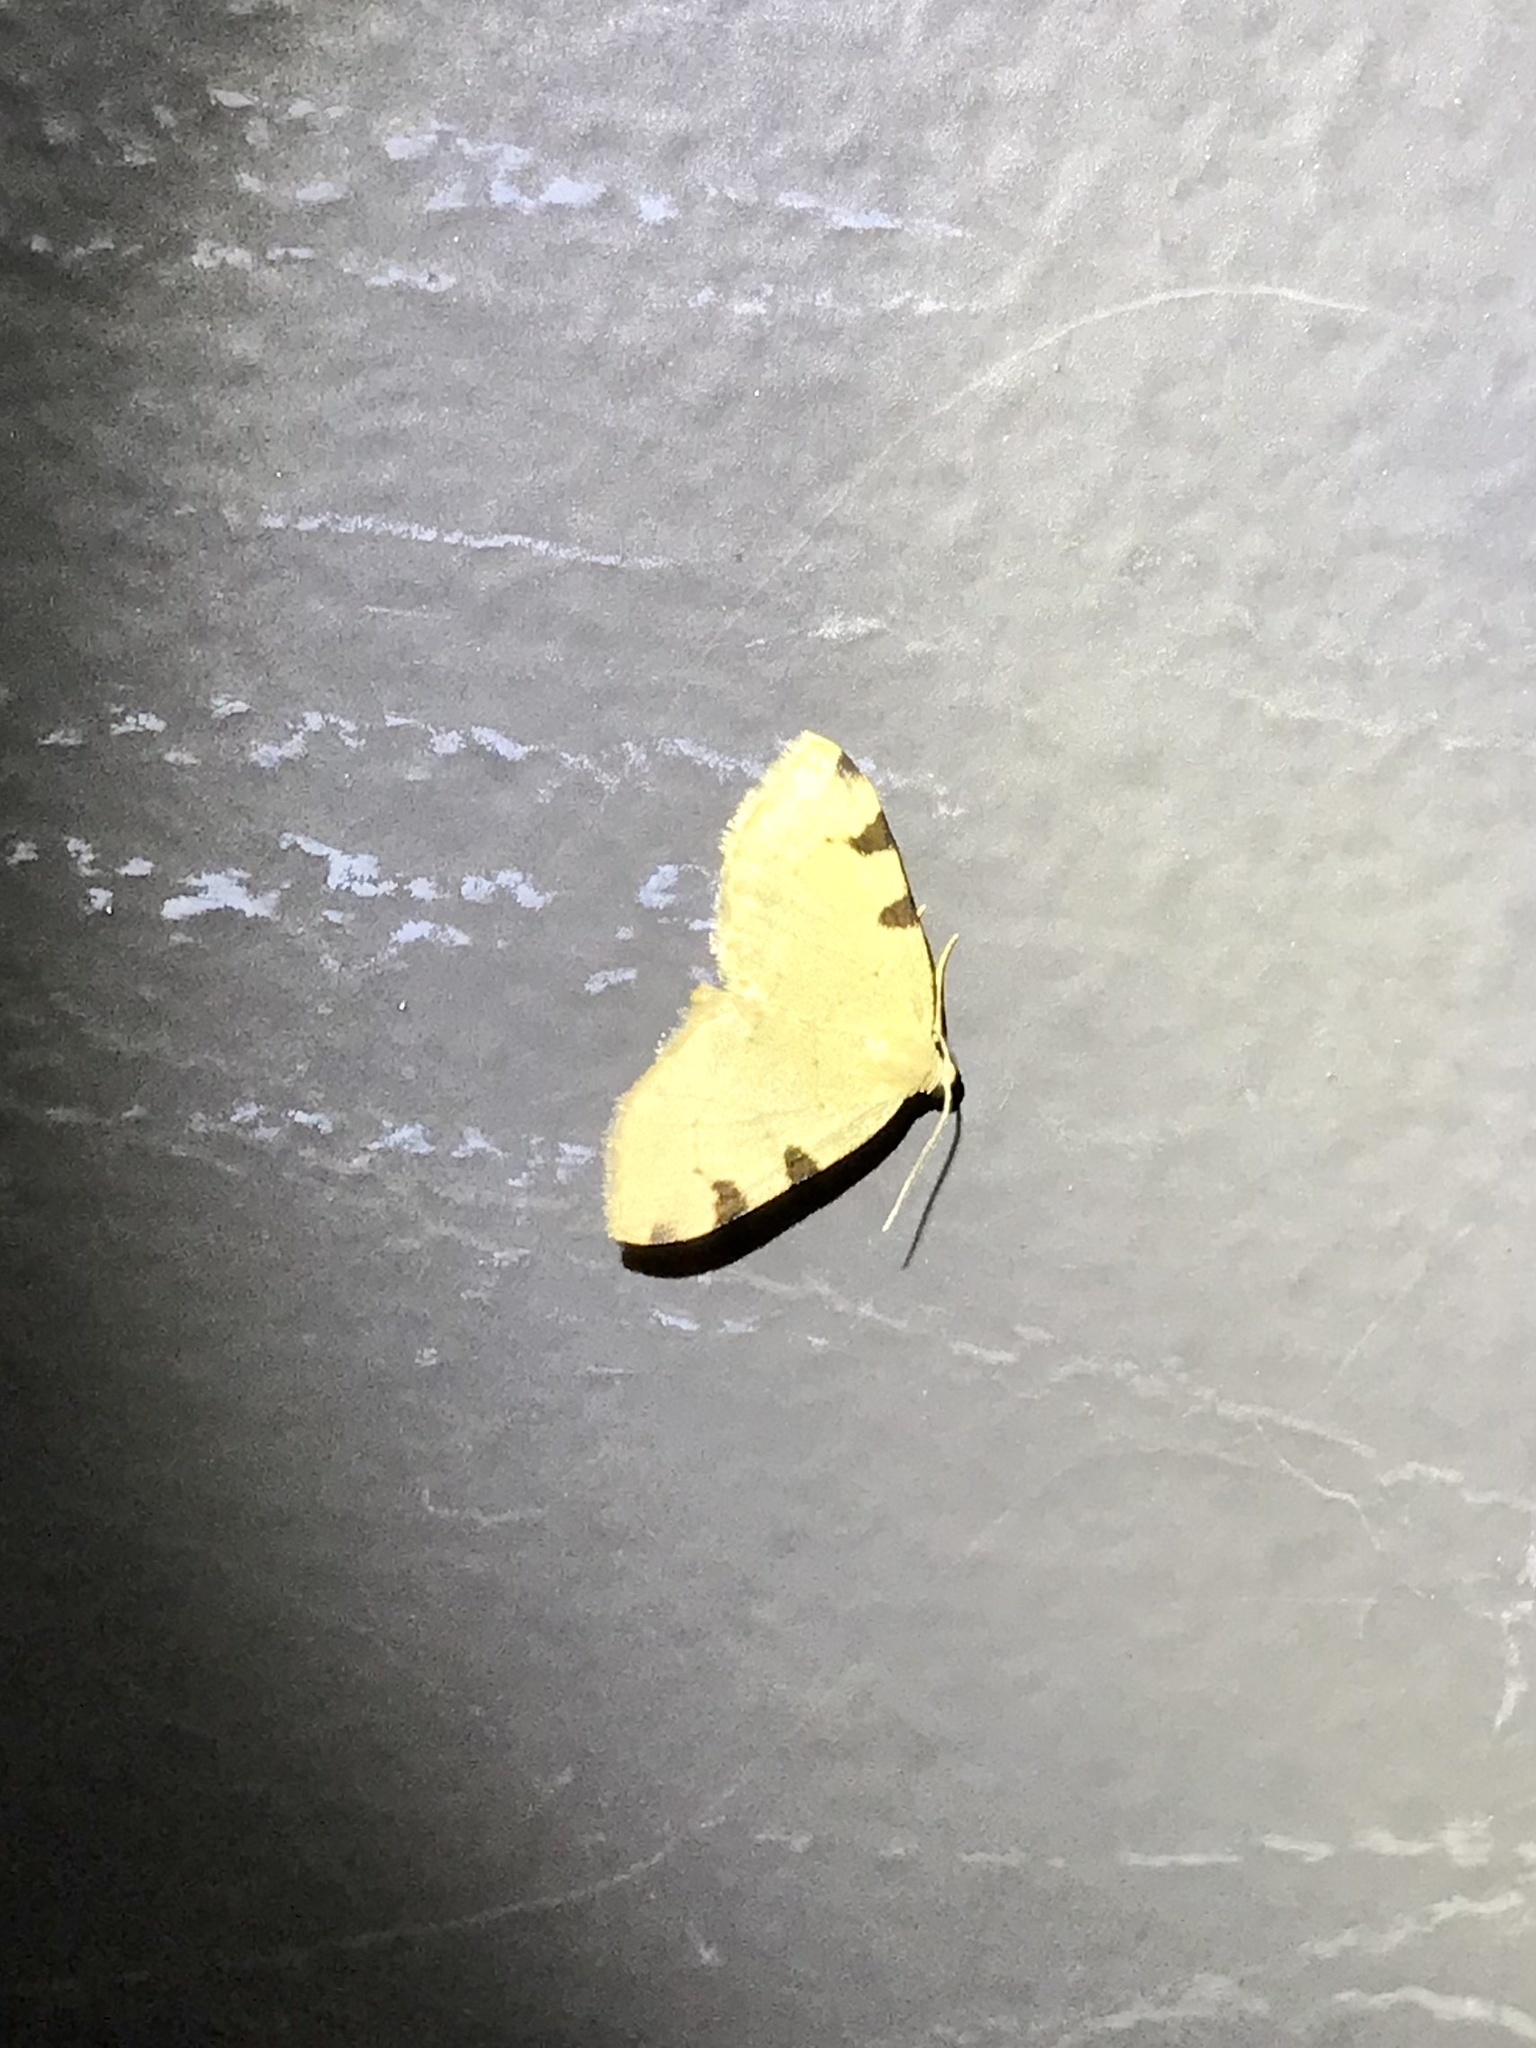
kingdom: Animalia
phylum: Arthropoda
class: Insecta
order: Lepidoptera
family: Geometridae
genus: Heterophleps
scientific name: Heterophleps triguttaria
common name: Three-spotted fillip
